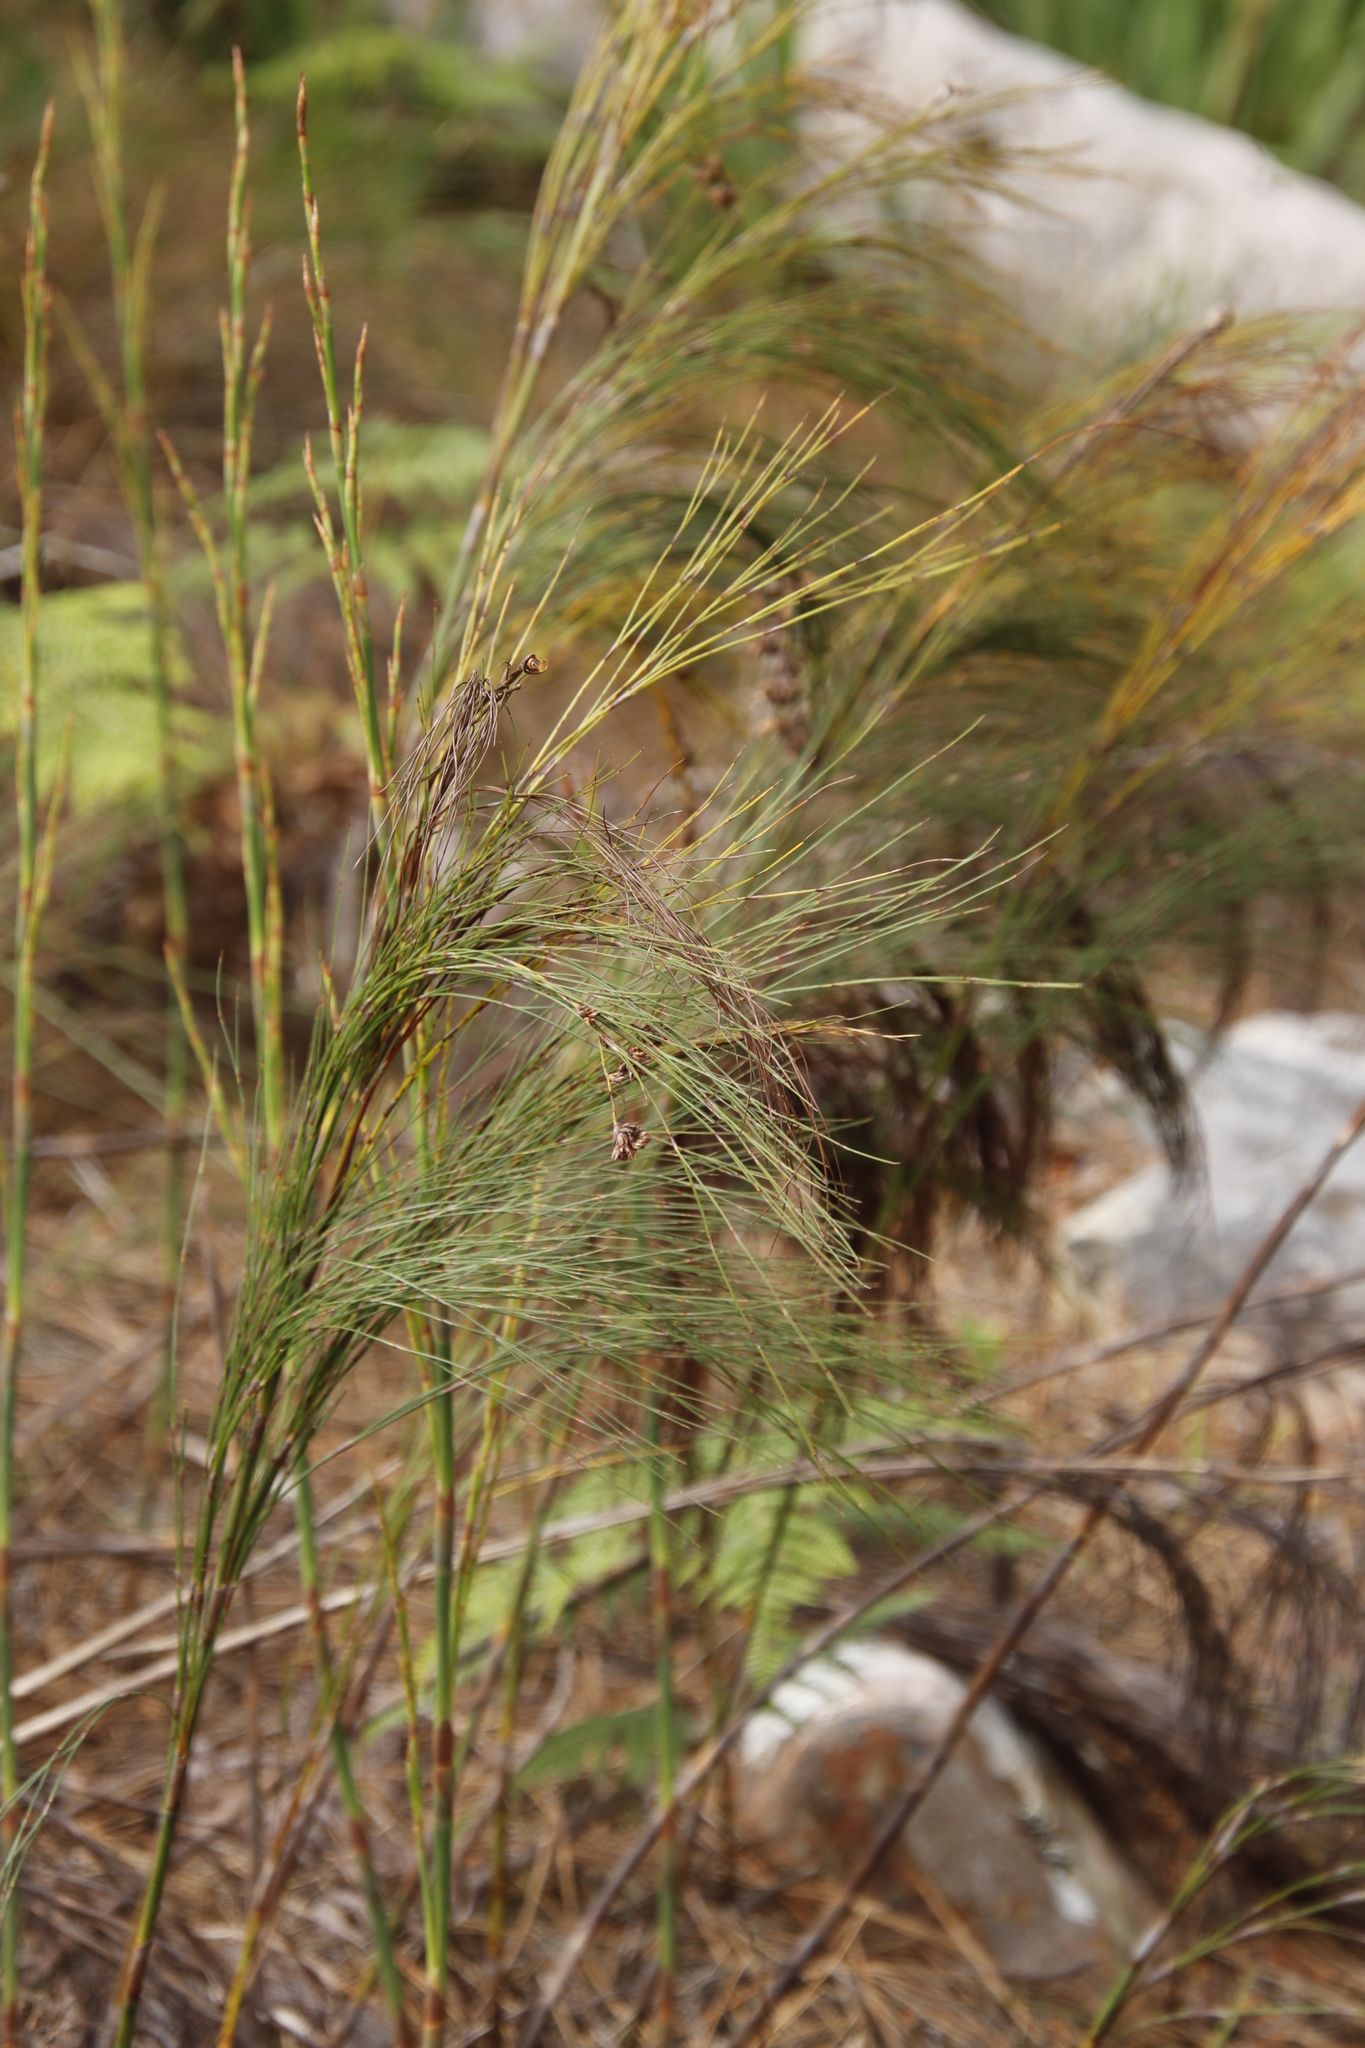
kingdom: Plantae
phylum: Tracheophyta
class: Liliopsida
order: Poales
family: Restionaceae
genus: Cannomois
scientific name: Cannomois virgata
